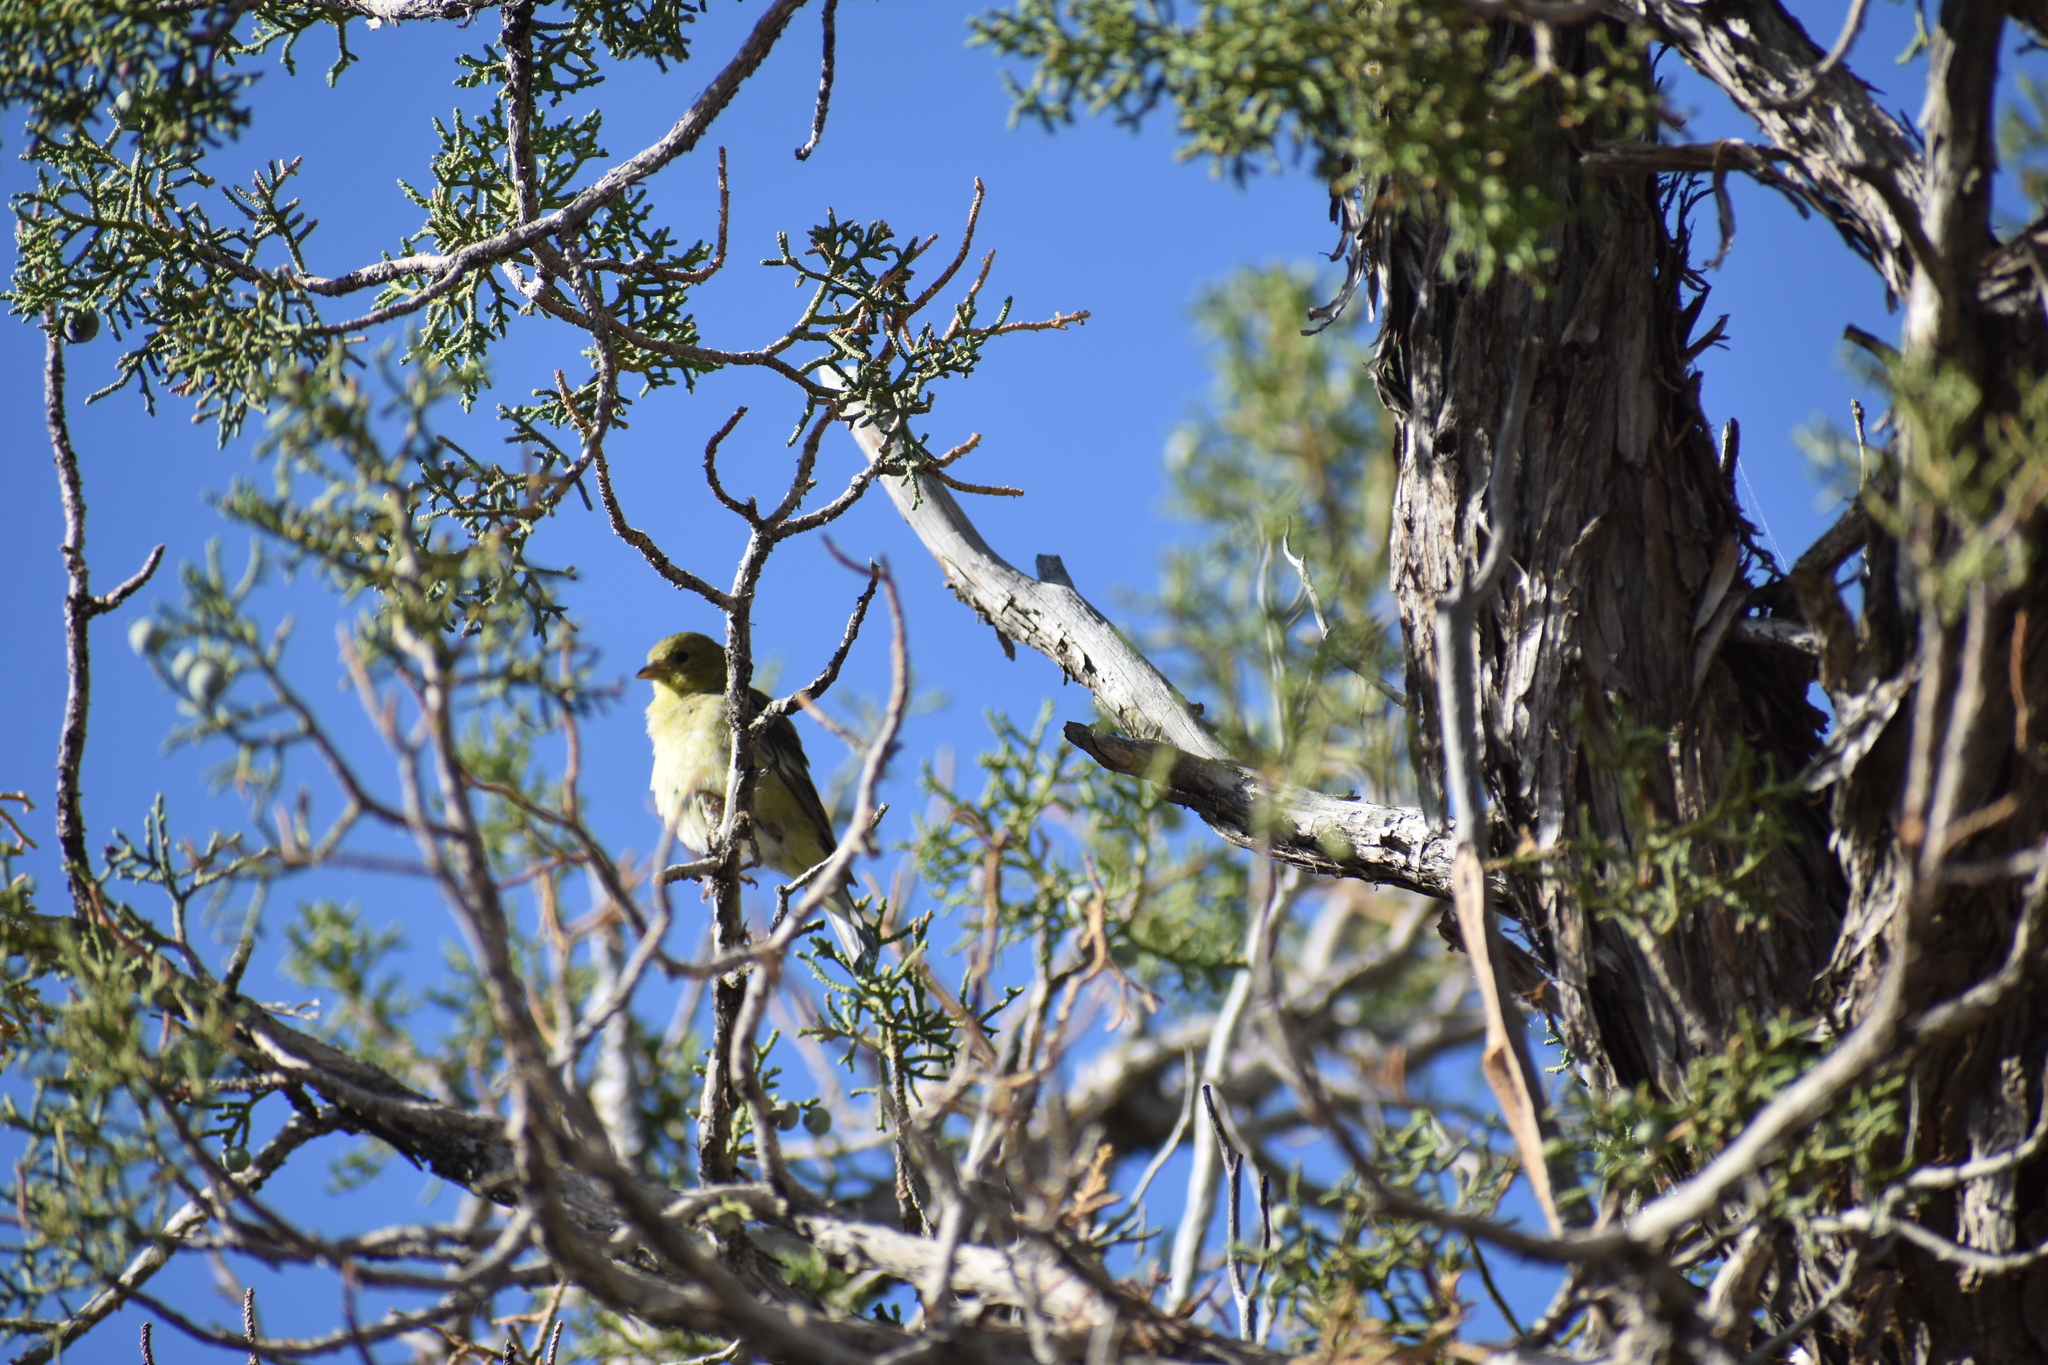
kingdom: Animalia
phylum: Chordata
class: Aves
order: Passeriformes
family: Fringillidae
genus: Spinus
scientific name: Spinus psaltria
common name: Lesser goldfinch
